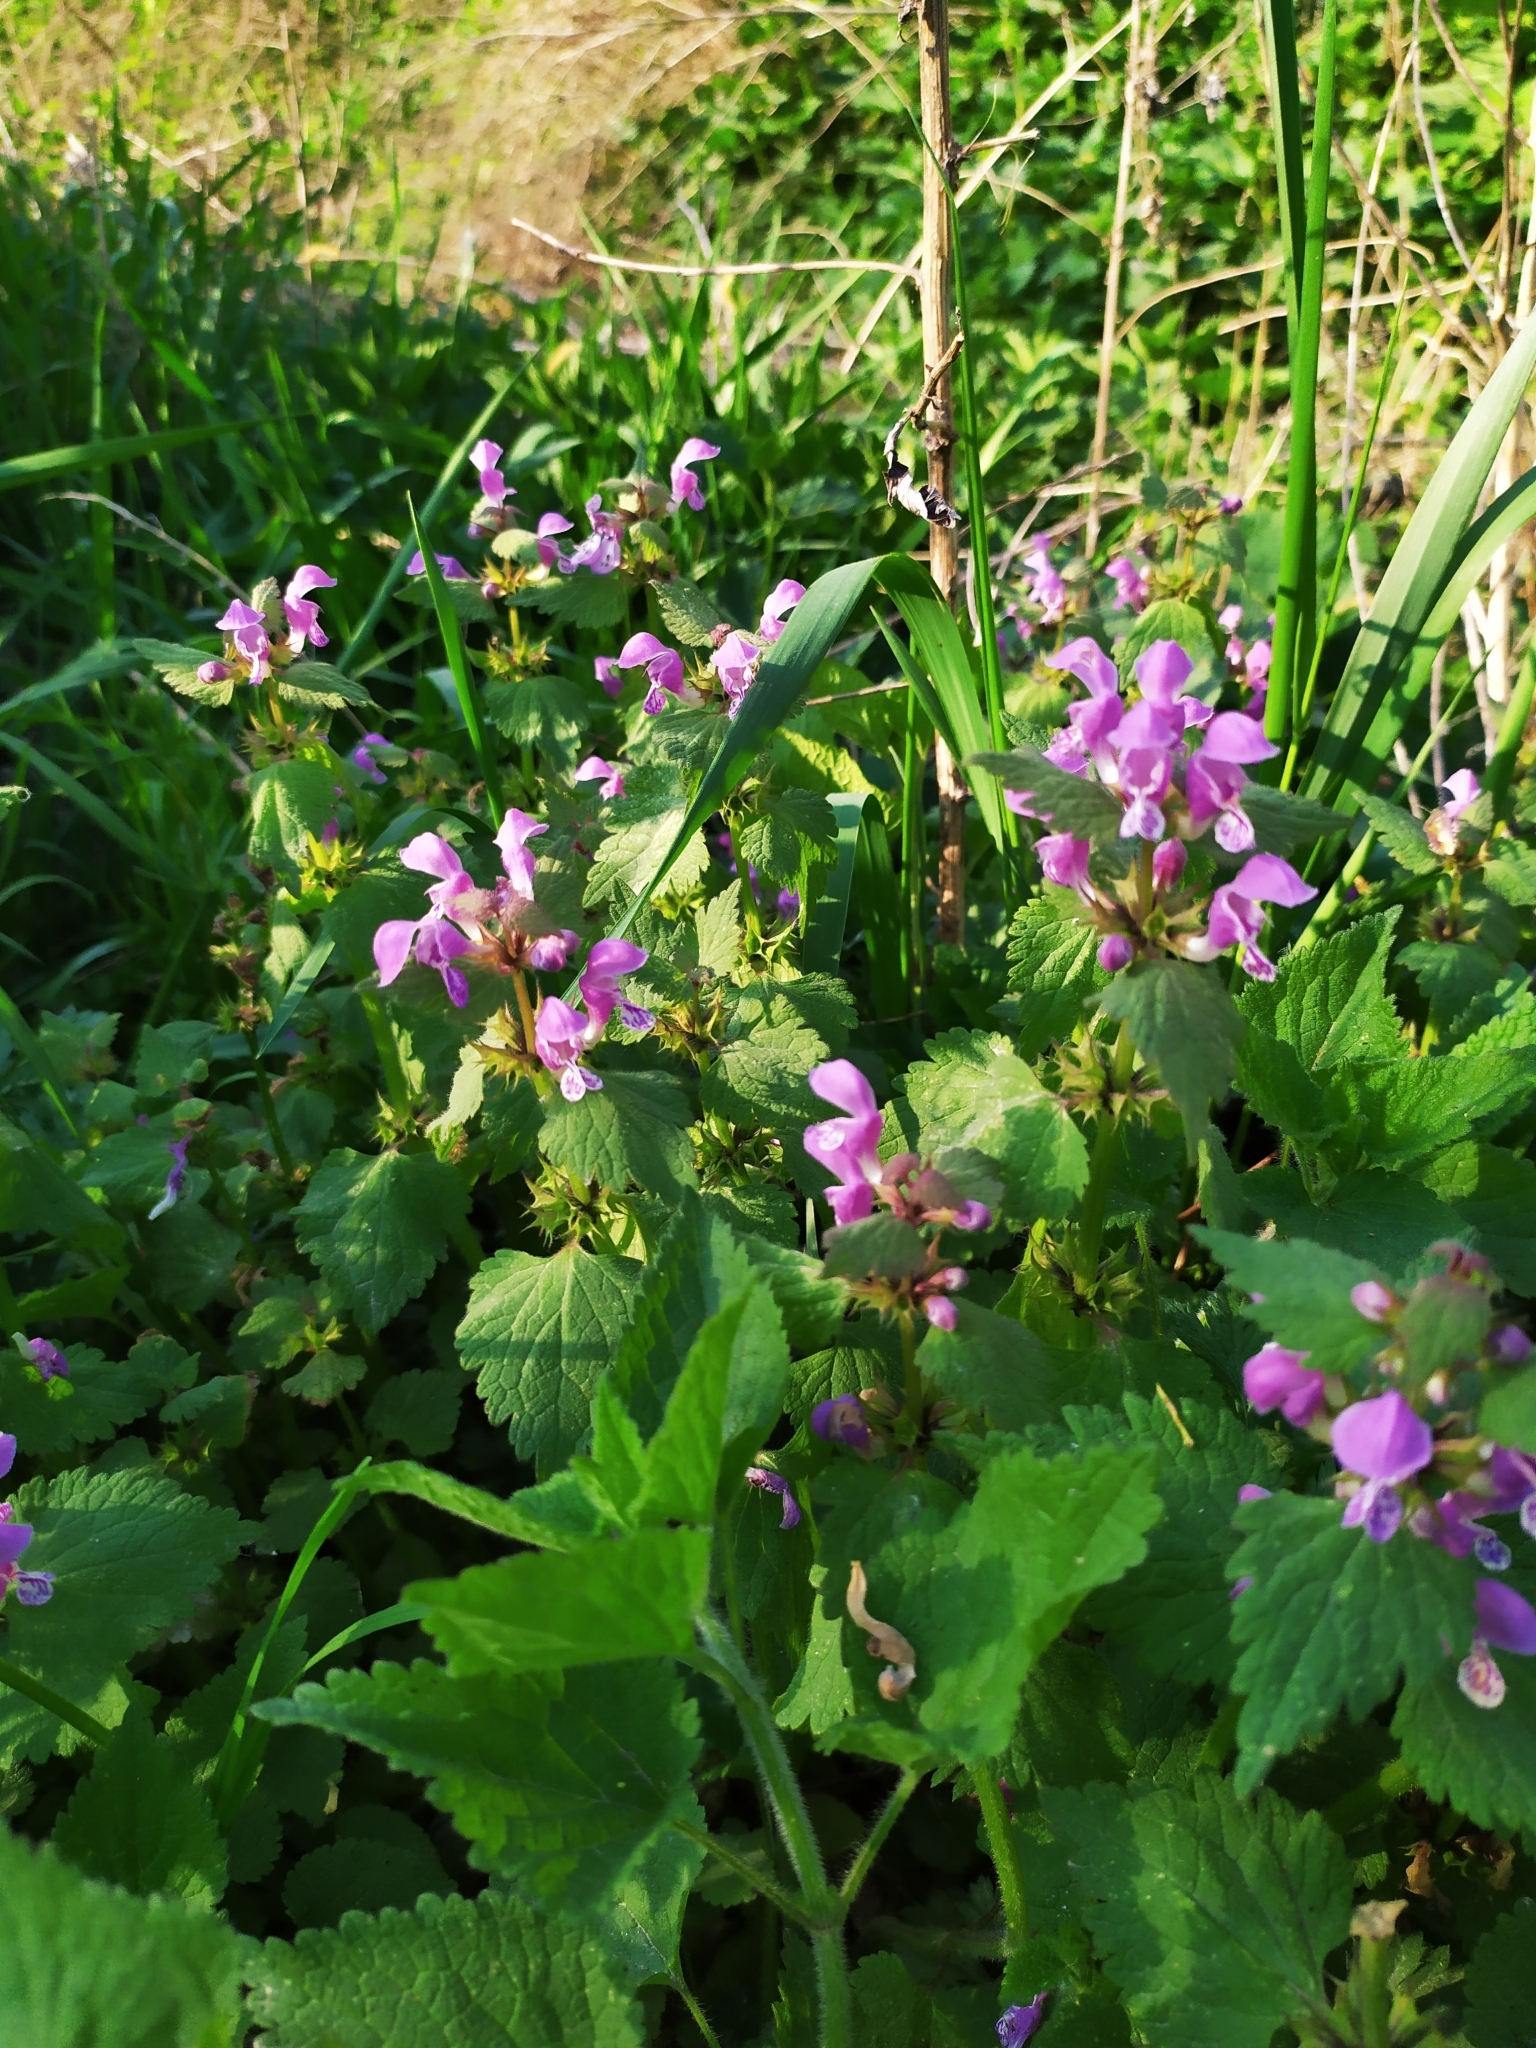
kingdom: Plantae
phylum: Tracheophyta
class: Magnoliopsida
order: Lamiales
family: Lamiaceae
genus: Lamium
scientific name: Lamium maculatum
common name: Spotted dead-nettle
